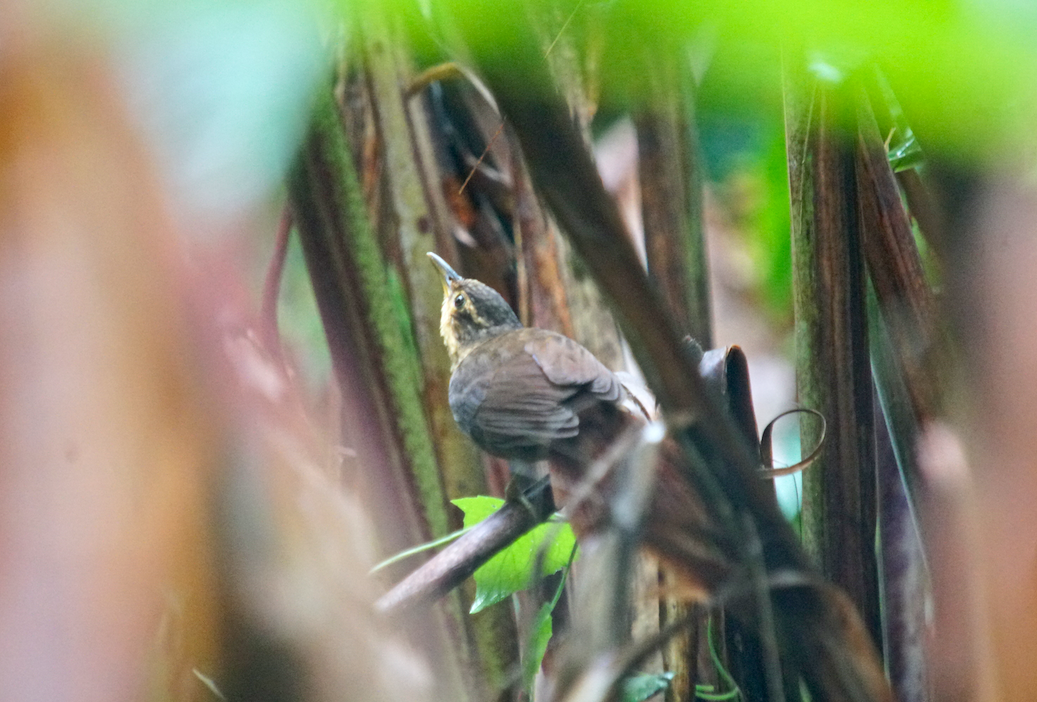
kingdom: Animalia
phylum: Chordata
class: Aves
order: Passeriformes
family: Furnariidae
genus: Automolus
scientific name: Automolus ochrolaemus
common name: Buff-throated foliage-gleaner
